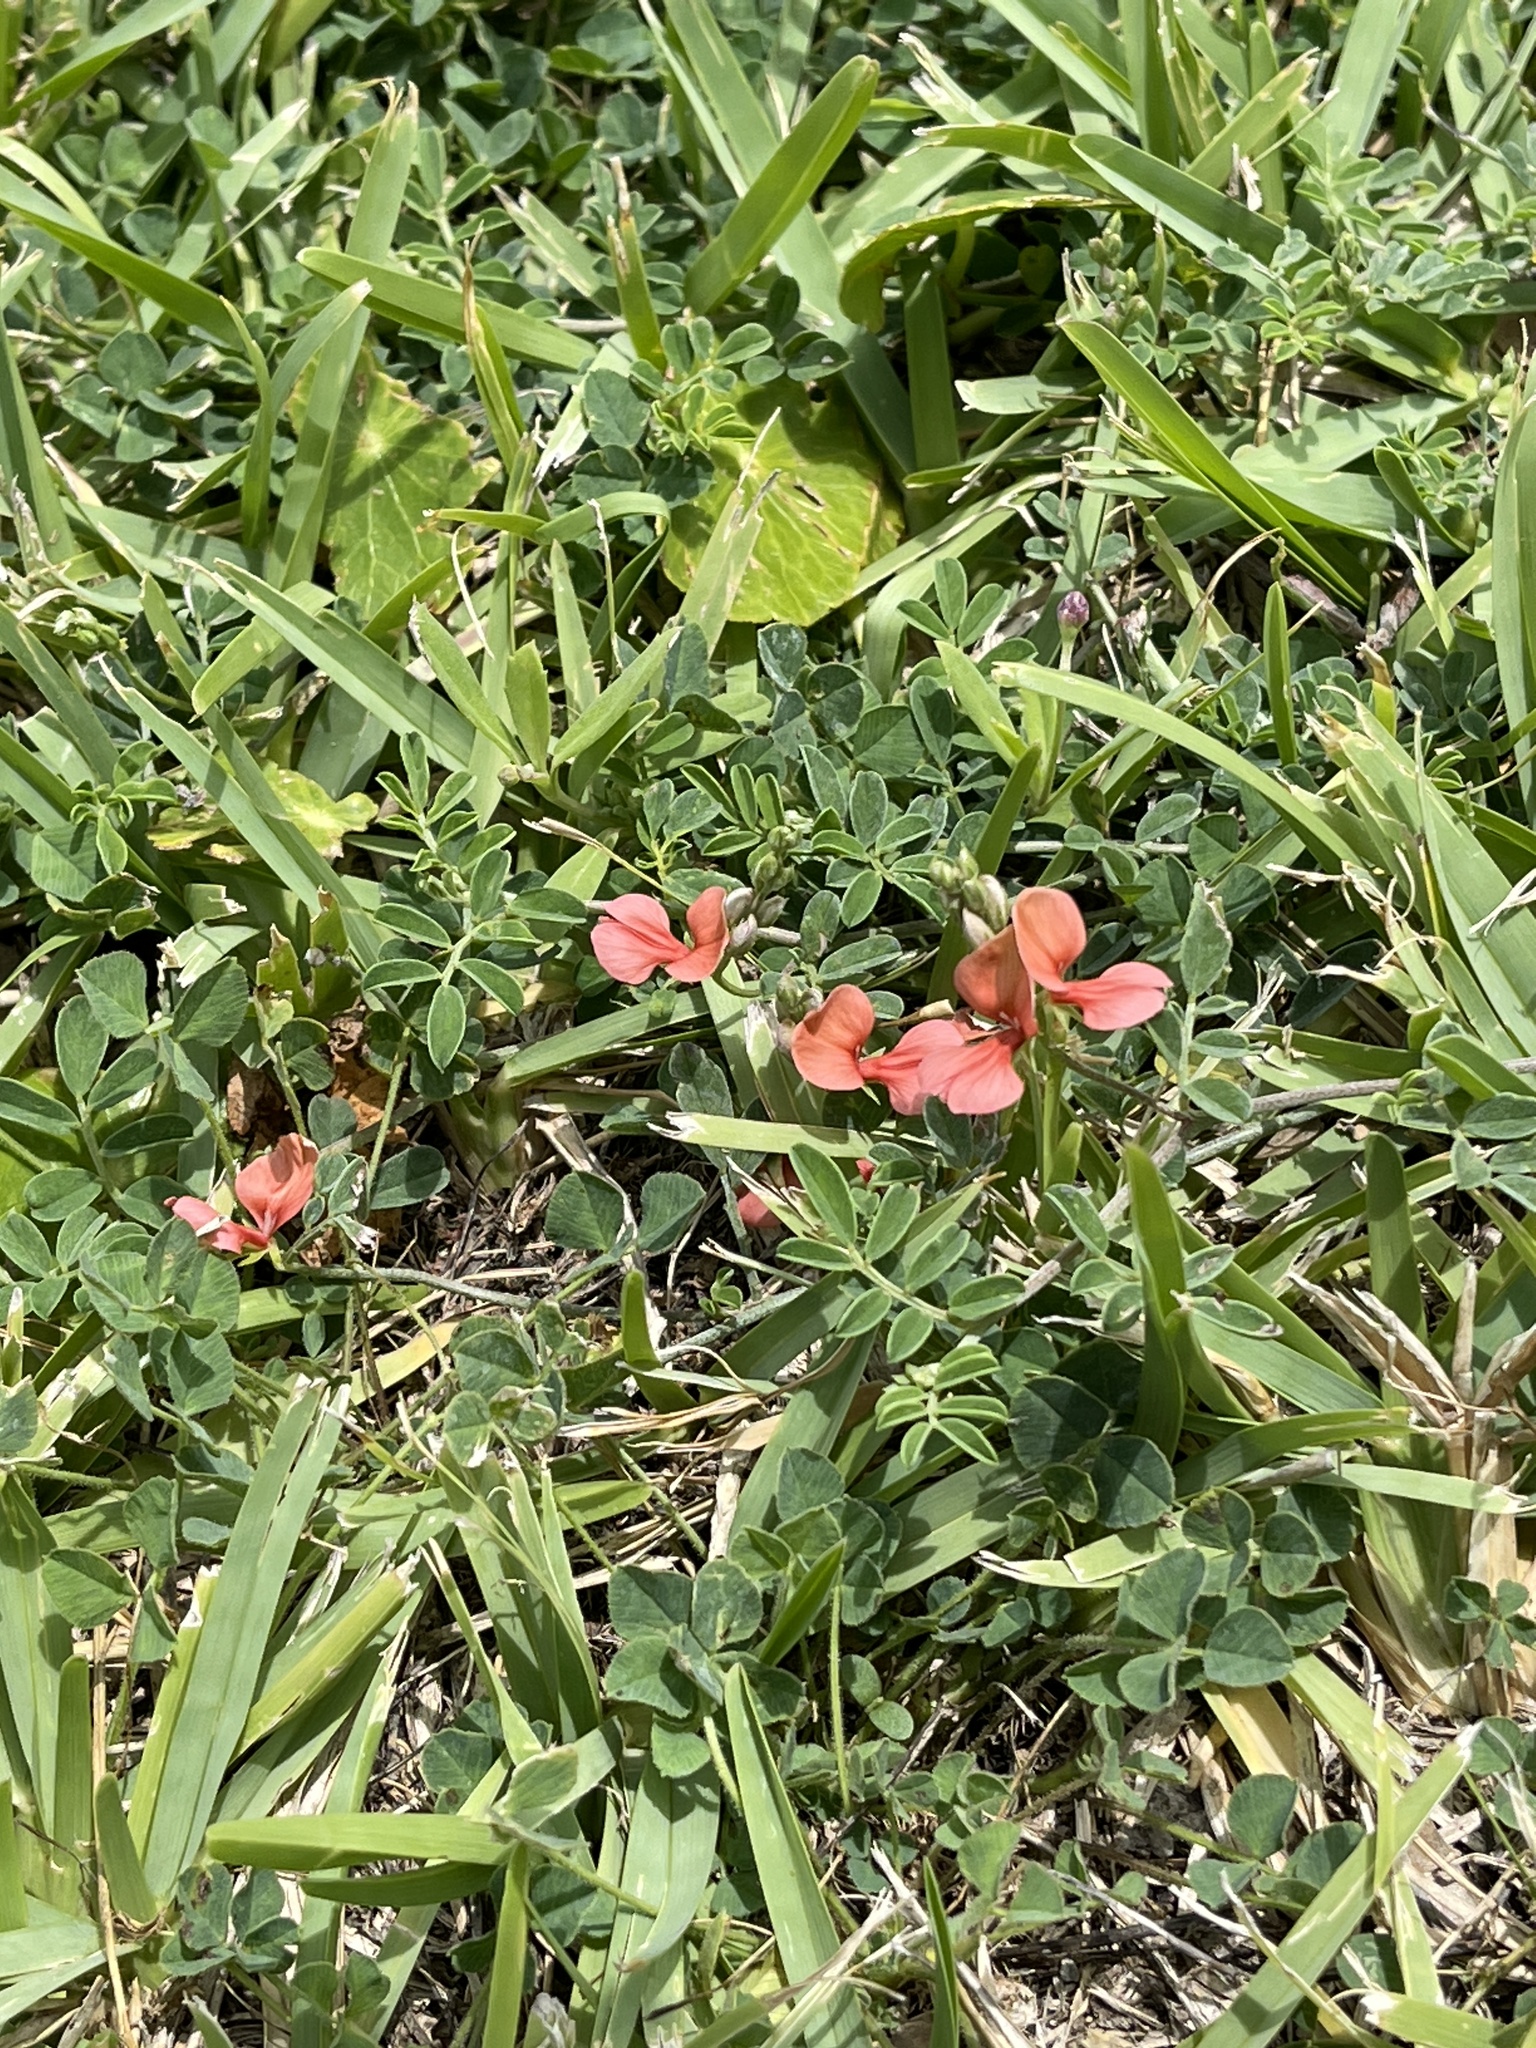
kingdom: Plantae
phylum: Tracheophyta
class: Magnoliopsida
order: Fabales
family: Fabaceae
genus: Indigofera
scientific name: Indigofera miniata
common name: Coast indigo
